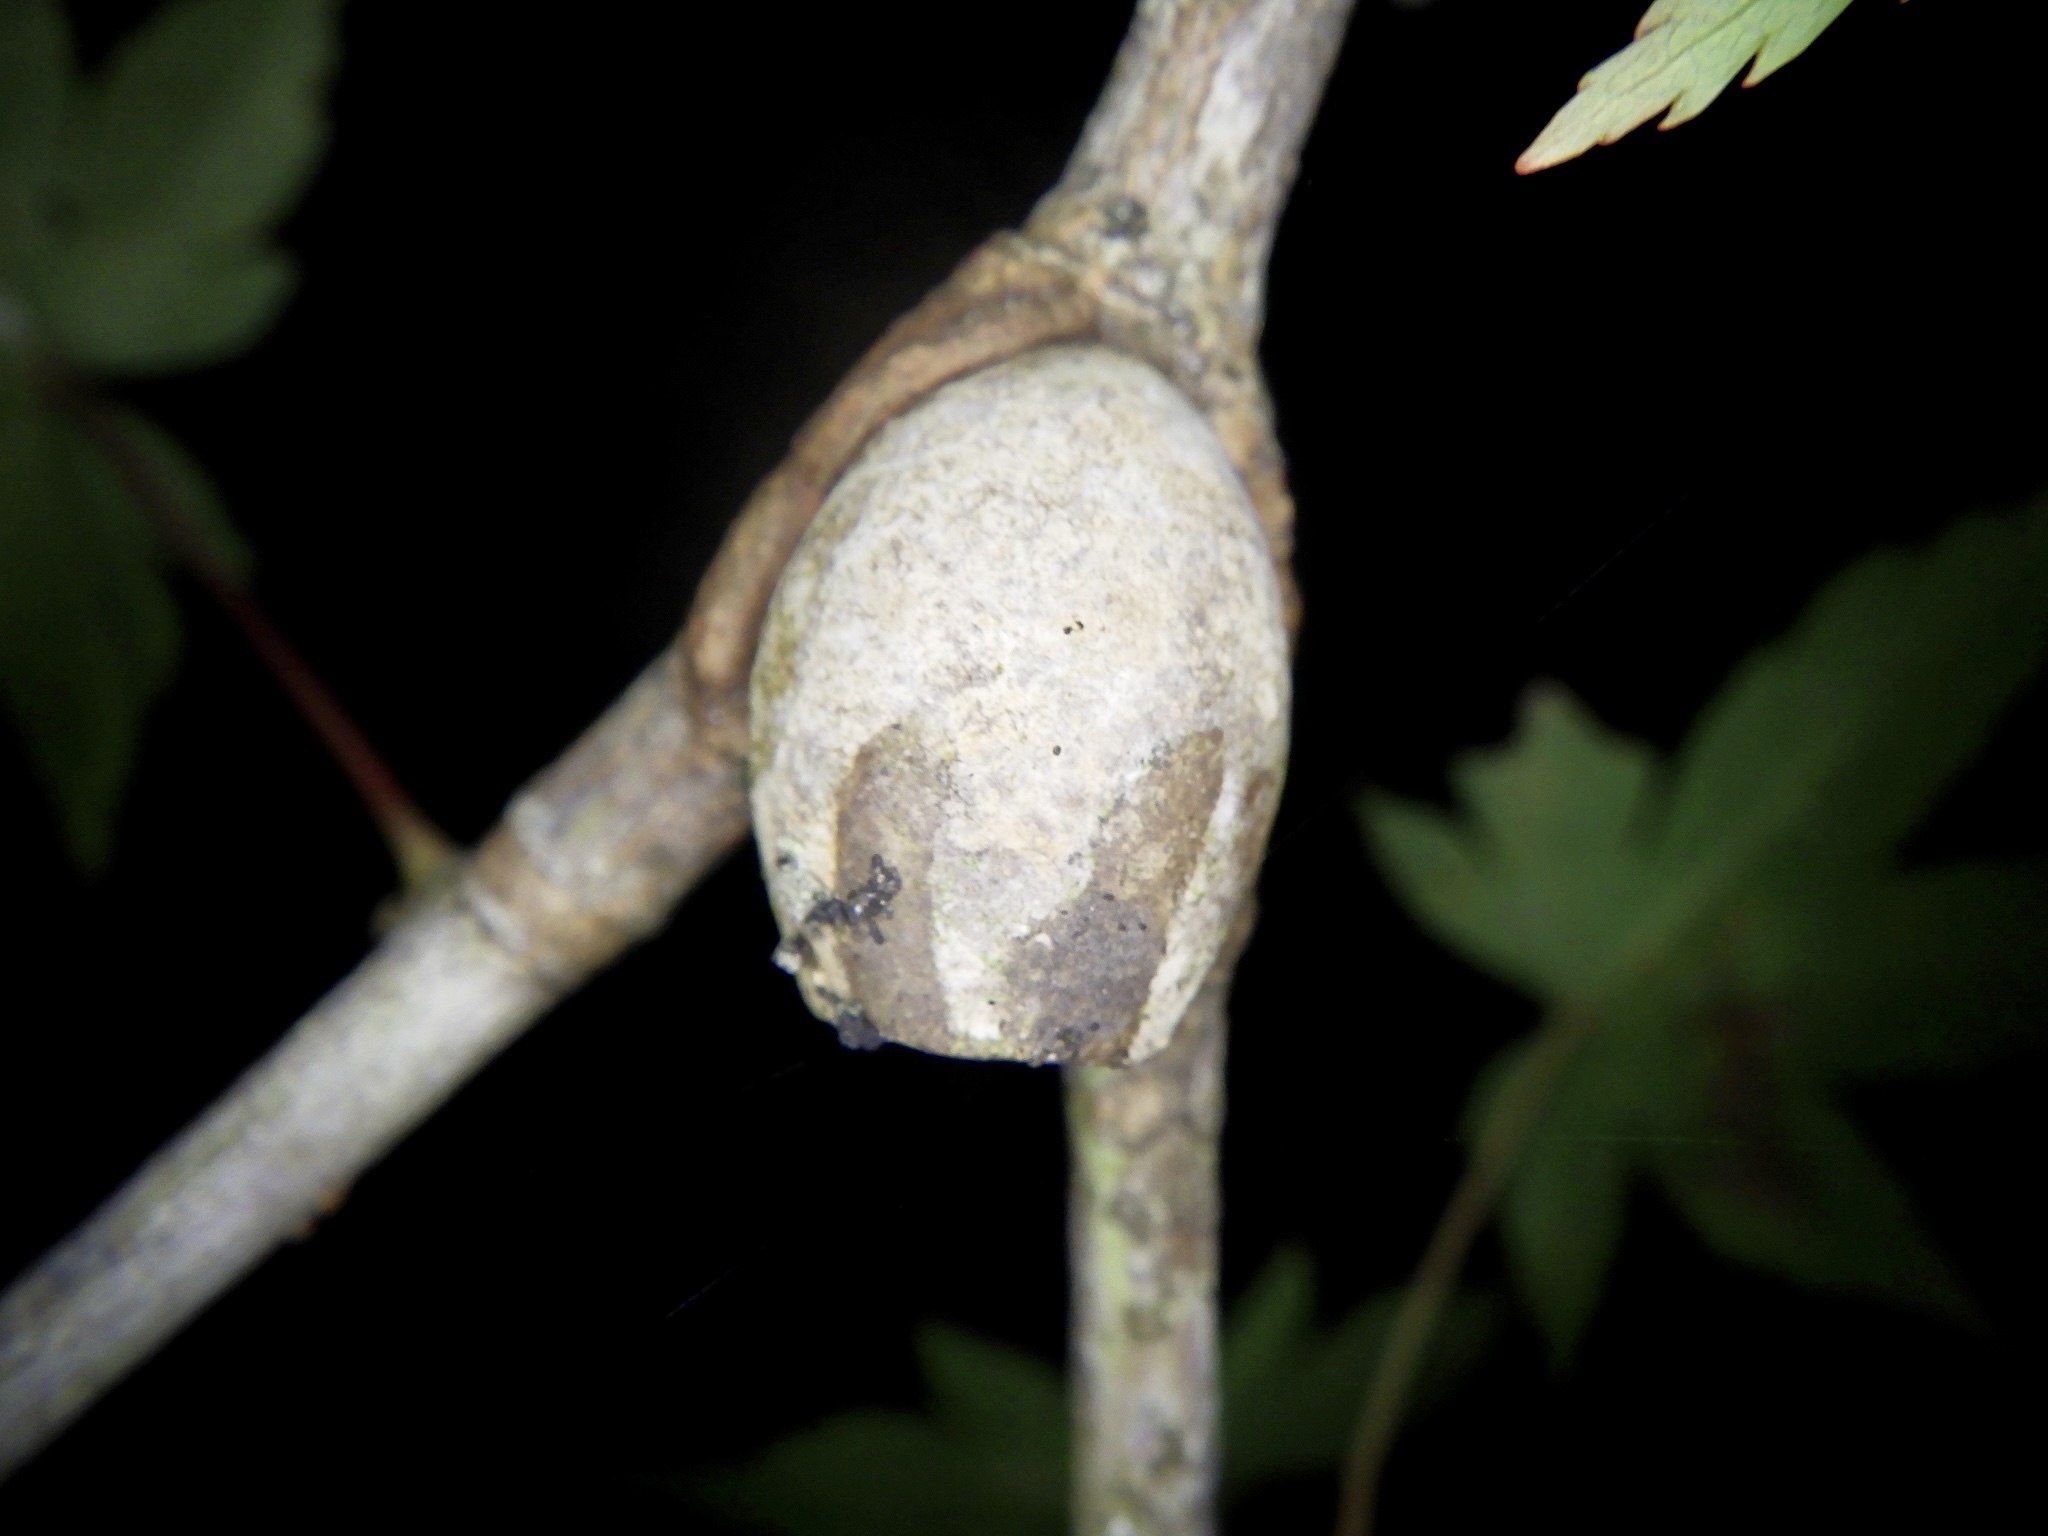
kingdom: Animalia
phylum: Arthropoda
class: Insecta
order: Lepidoptera
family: Limacodidae
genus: Monema
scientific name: Monema flavescens
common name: Oriental moth
